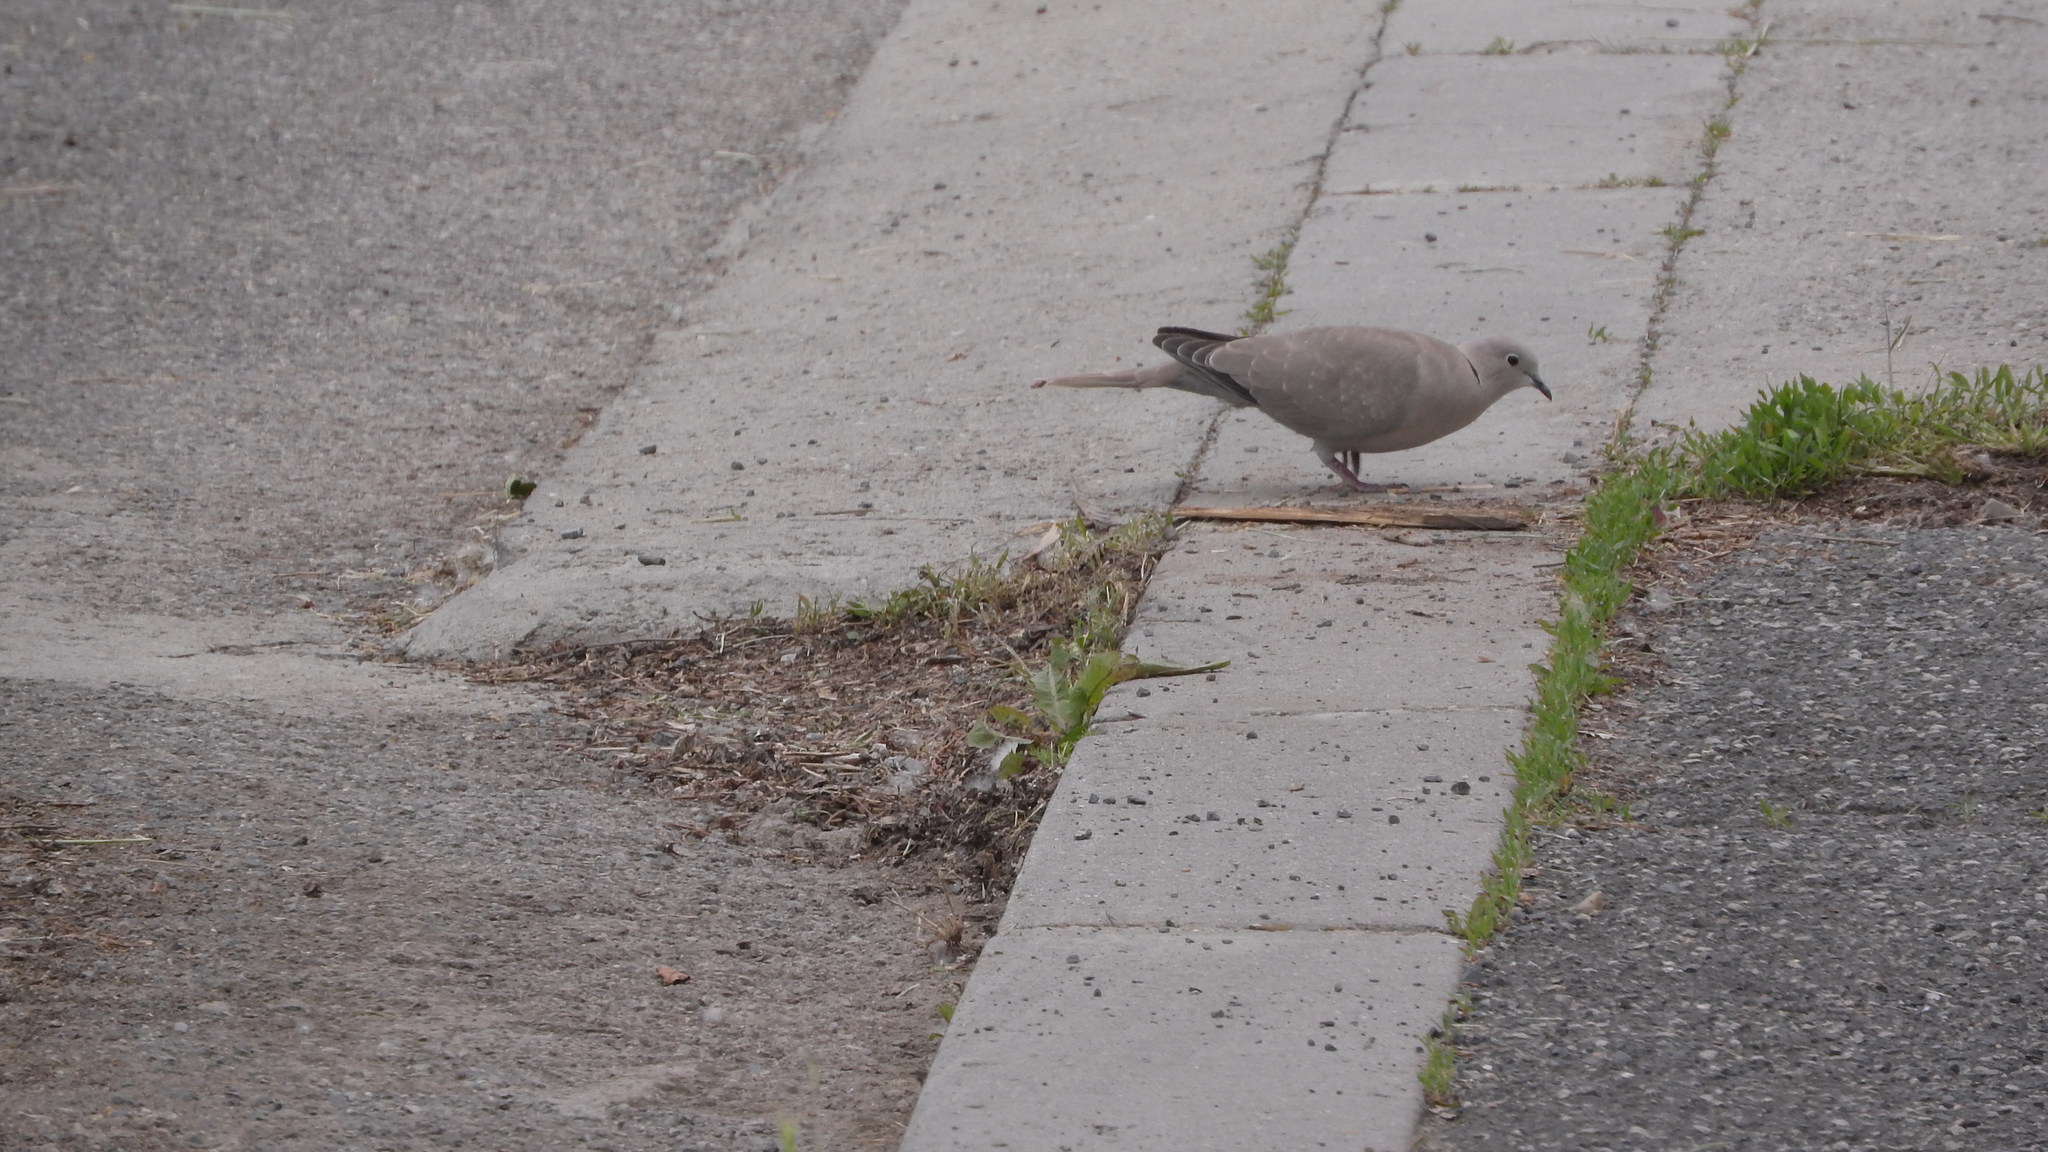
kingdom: Animalia
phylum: Chordata
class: Aves
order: Columbiformes
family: Columbidae
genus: Streptopelia
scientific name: Streptopelia decaocto
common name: Eurasian collared dove
